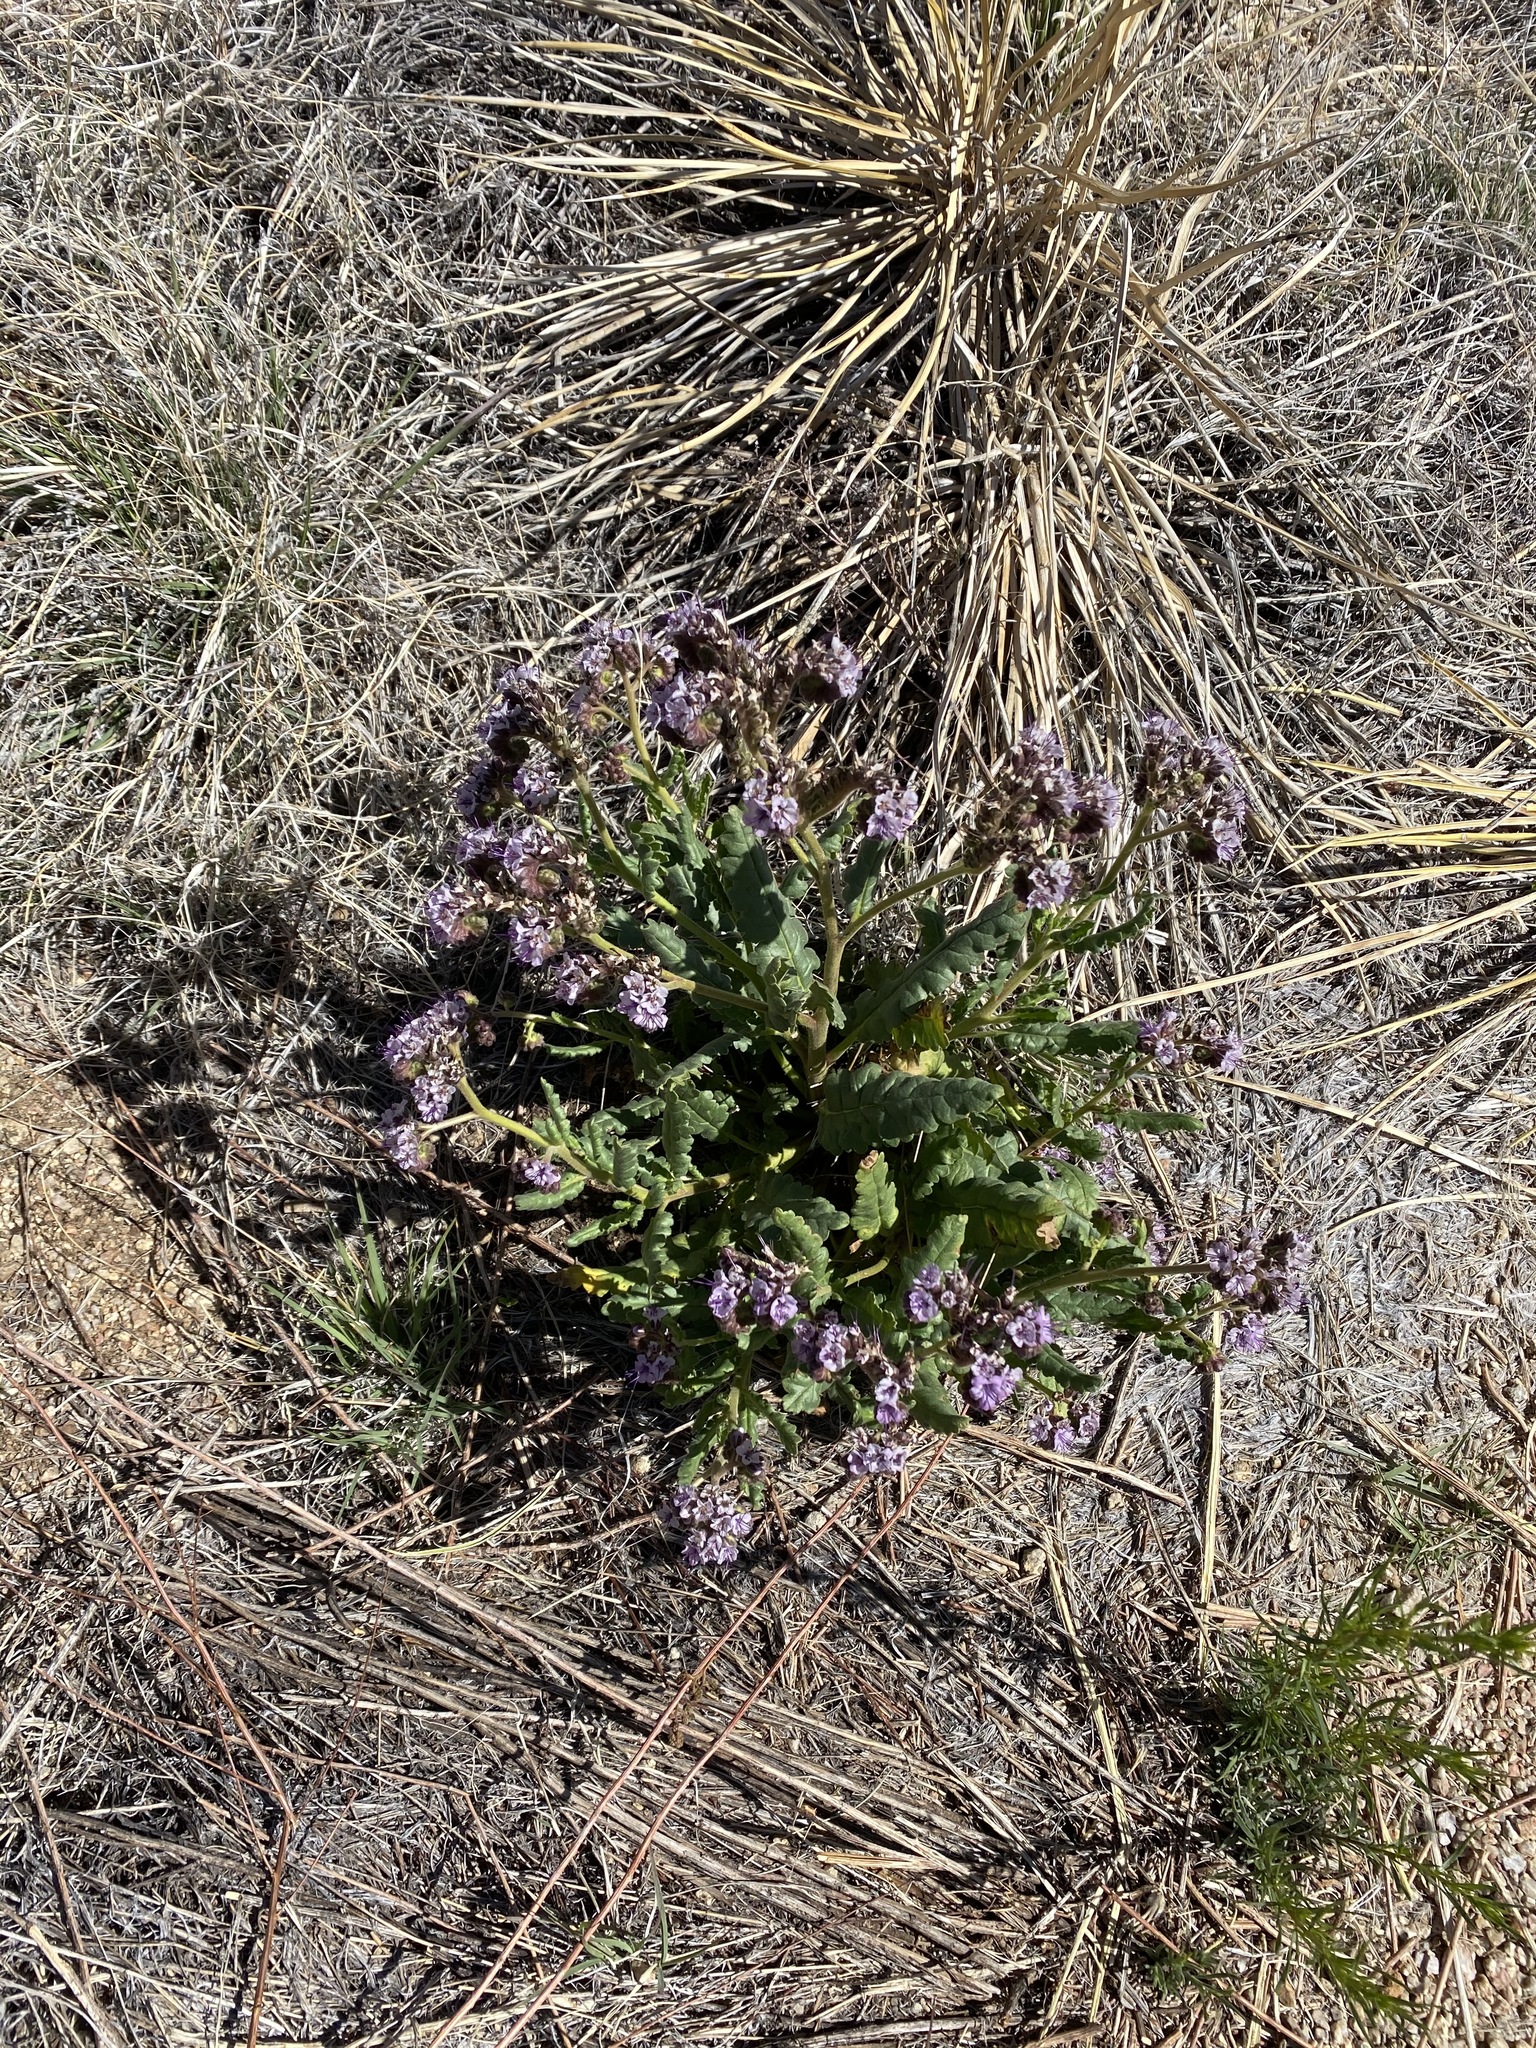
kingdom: Plantae
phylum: Tracheophyta
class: Magnoliopsida
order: Boraginales
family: Hydrophyllaceae
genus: Phacelia
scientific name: Phacelia integrifolia
